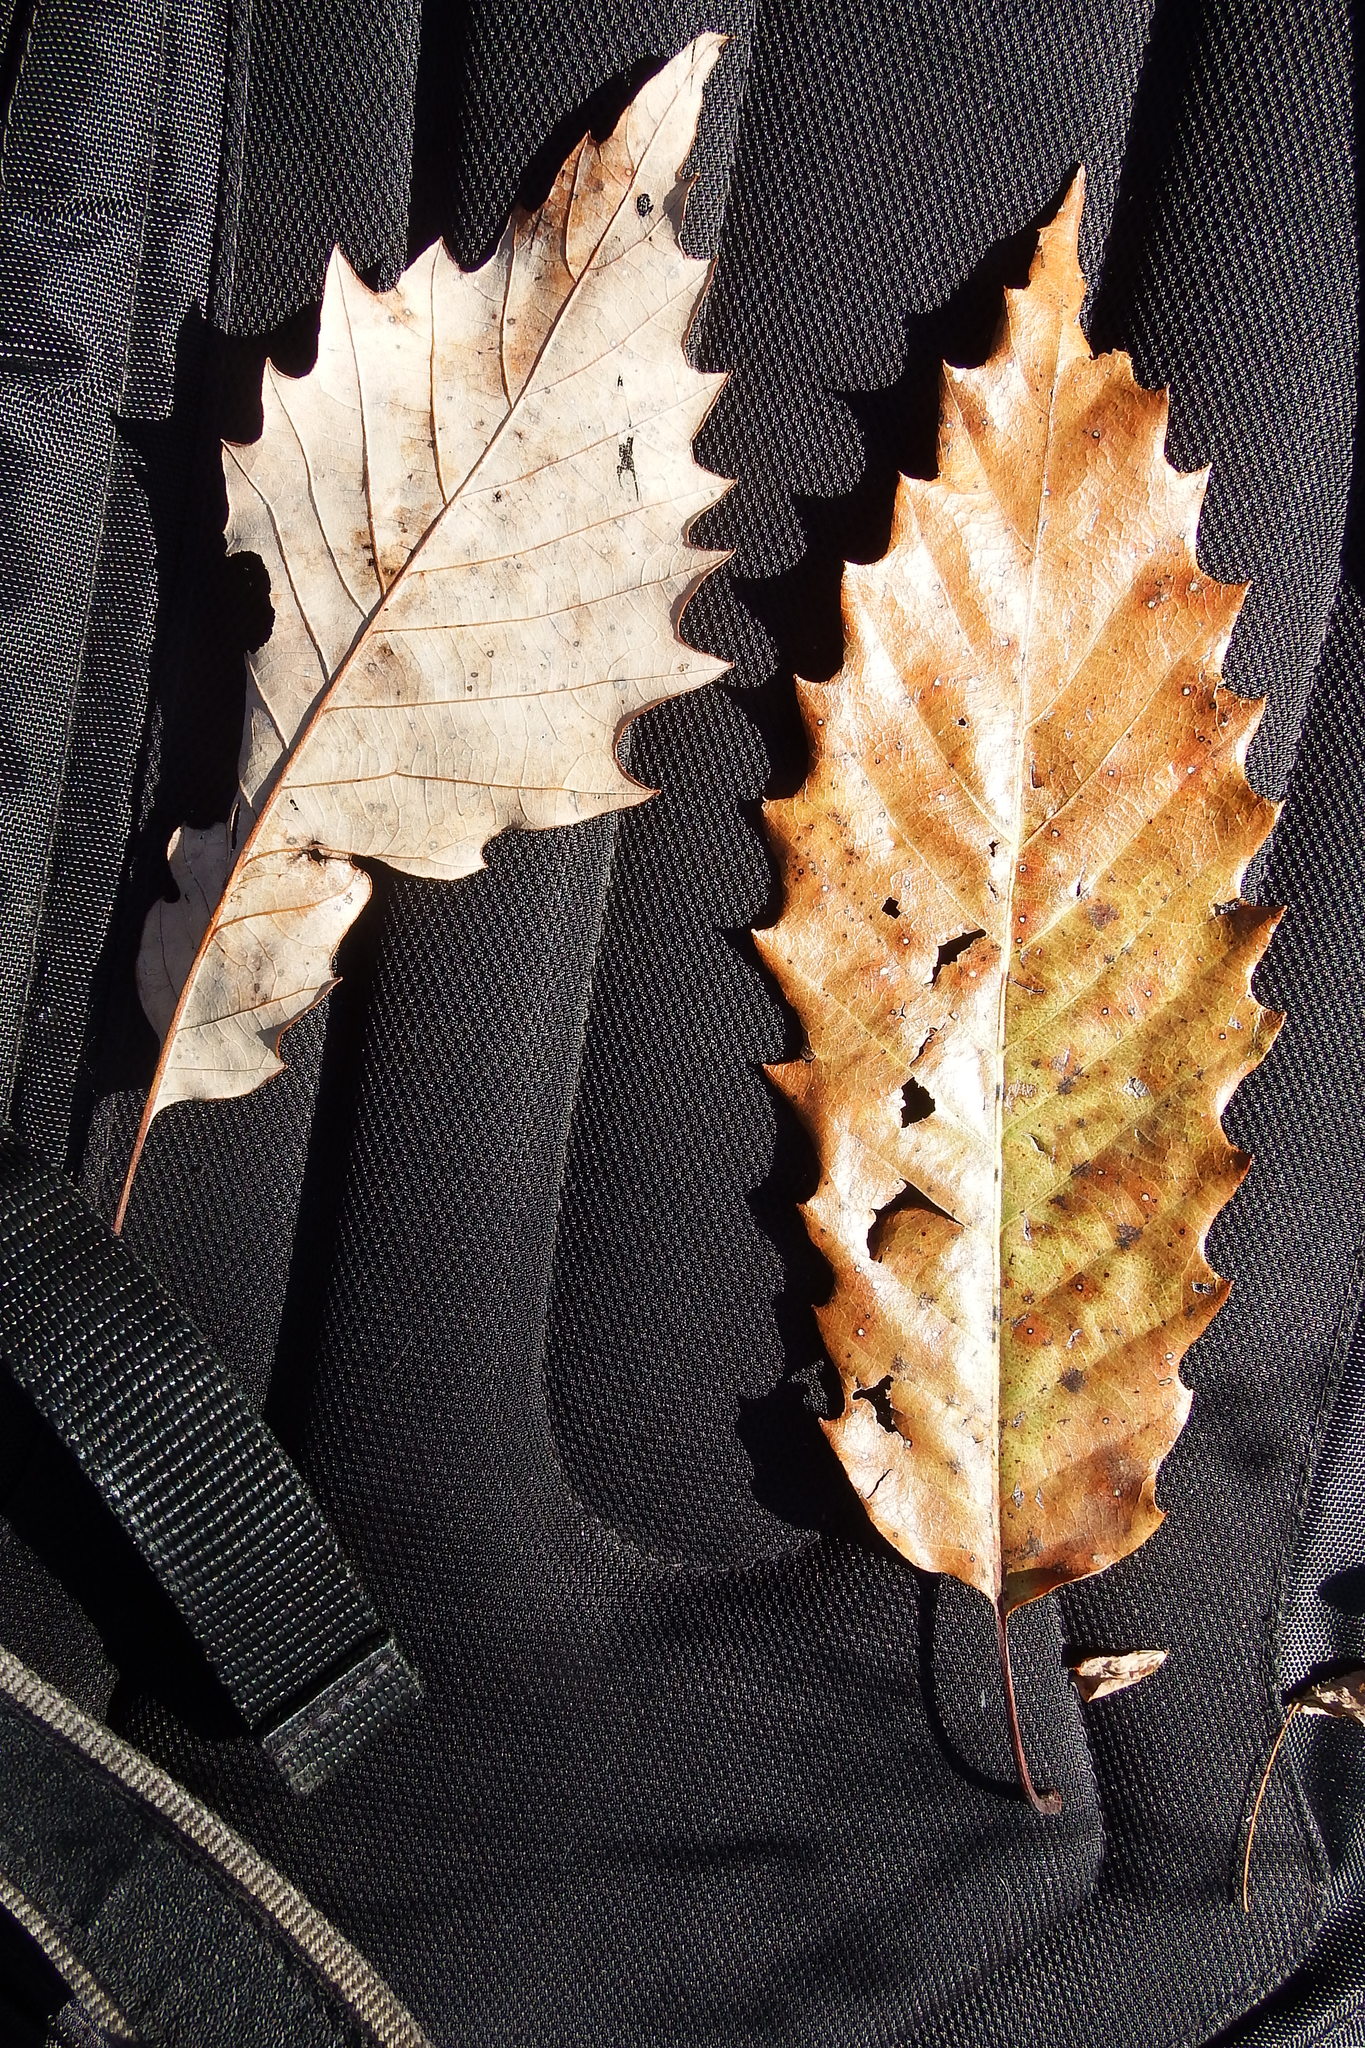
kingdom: Plantae
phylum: Tracheophyta
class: Magnoliopsida
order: Fagales
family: Fagaceae
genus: Quercus
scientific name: Quercus muehlenbergii
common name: Chinkapin oak
